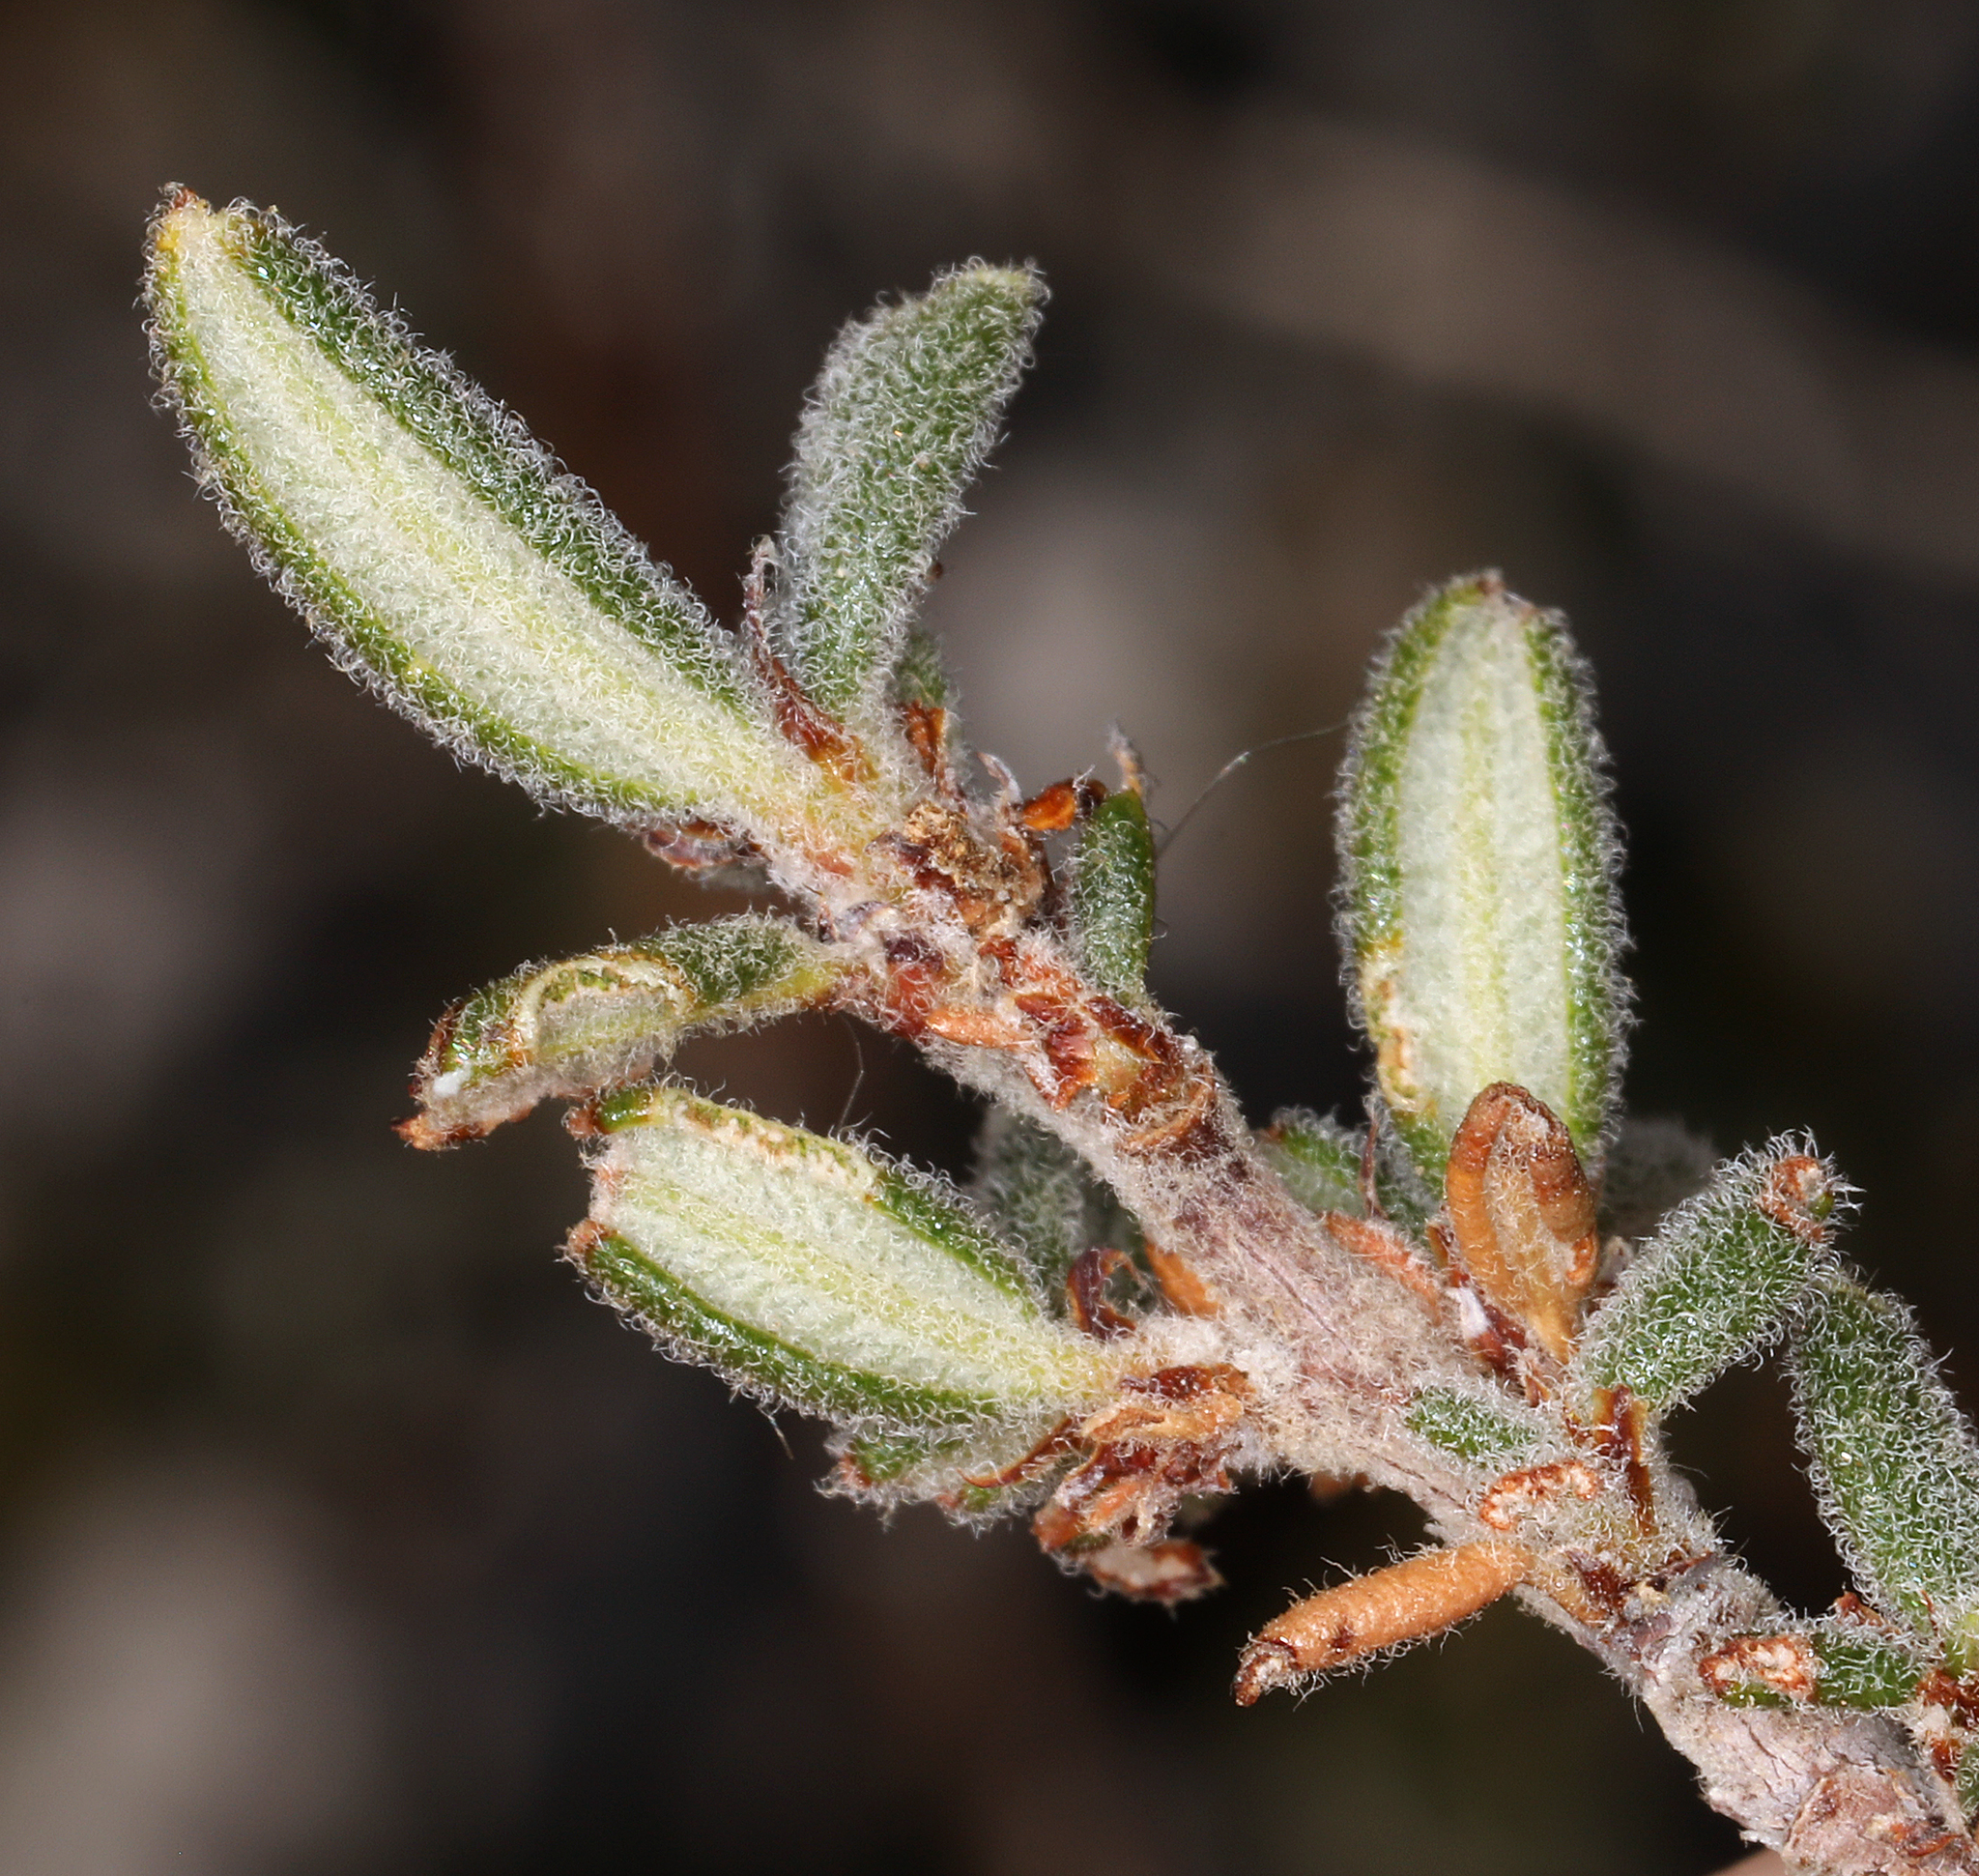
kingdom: Plantae
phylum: Tracheophyta
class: Magnoliopsida
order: Rosales
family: Rosaceae
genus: Cercocarpus
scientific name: Cercocarpus intricatus
